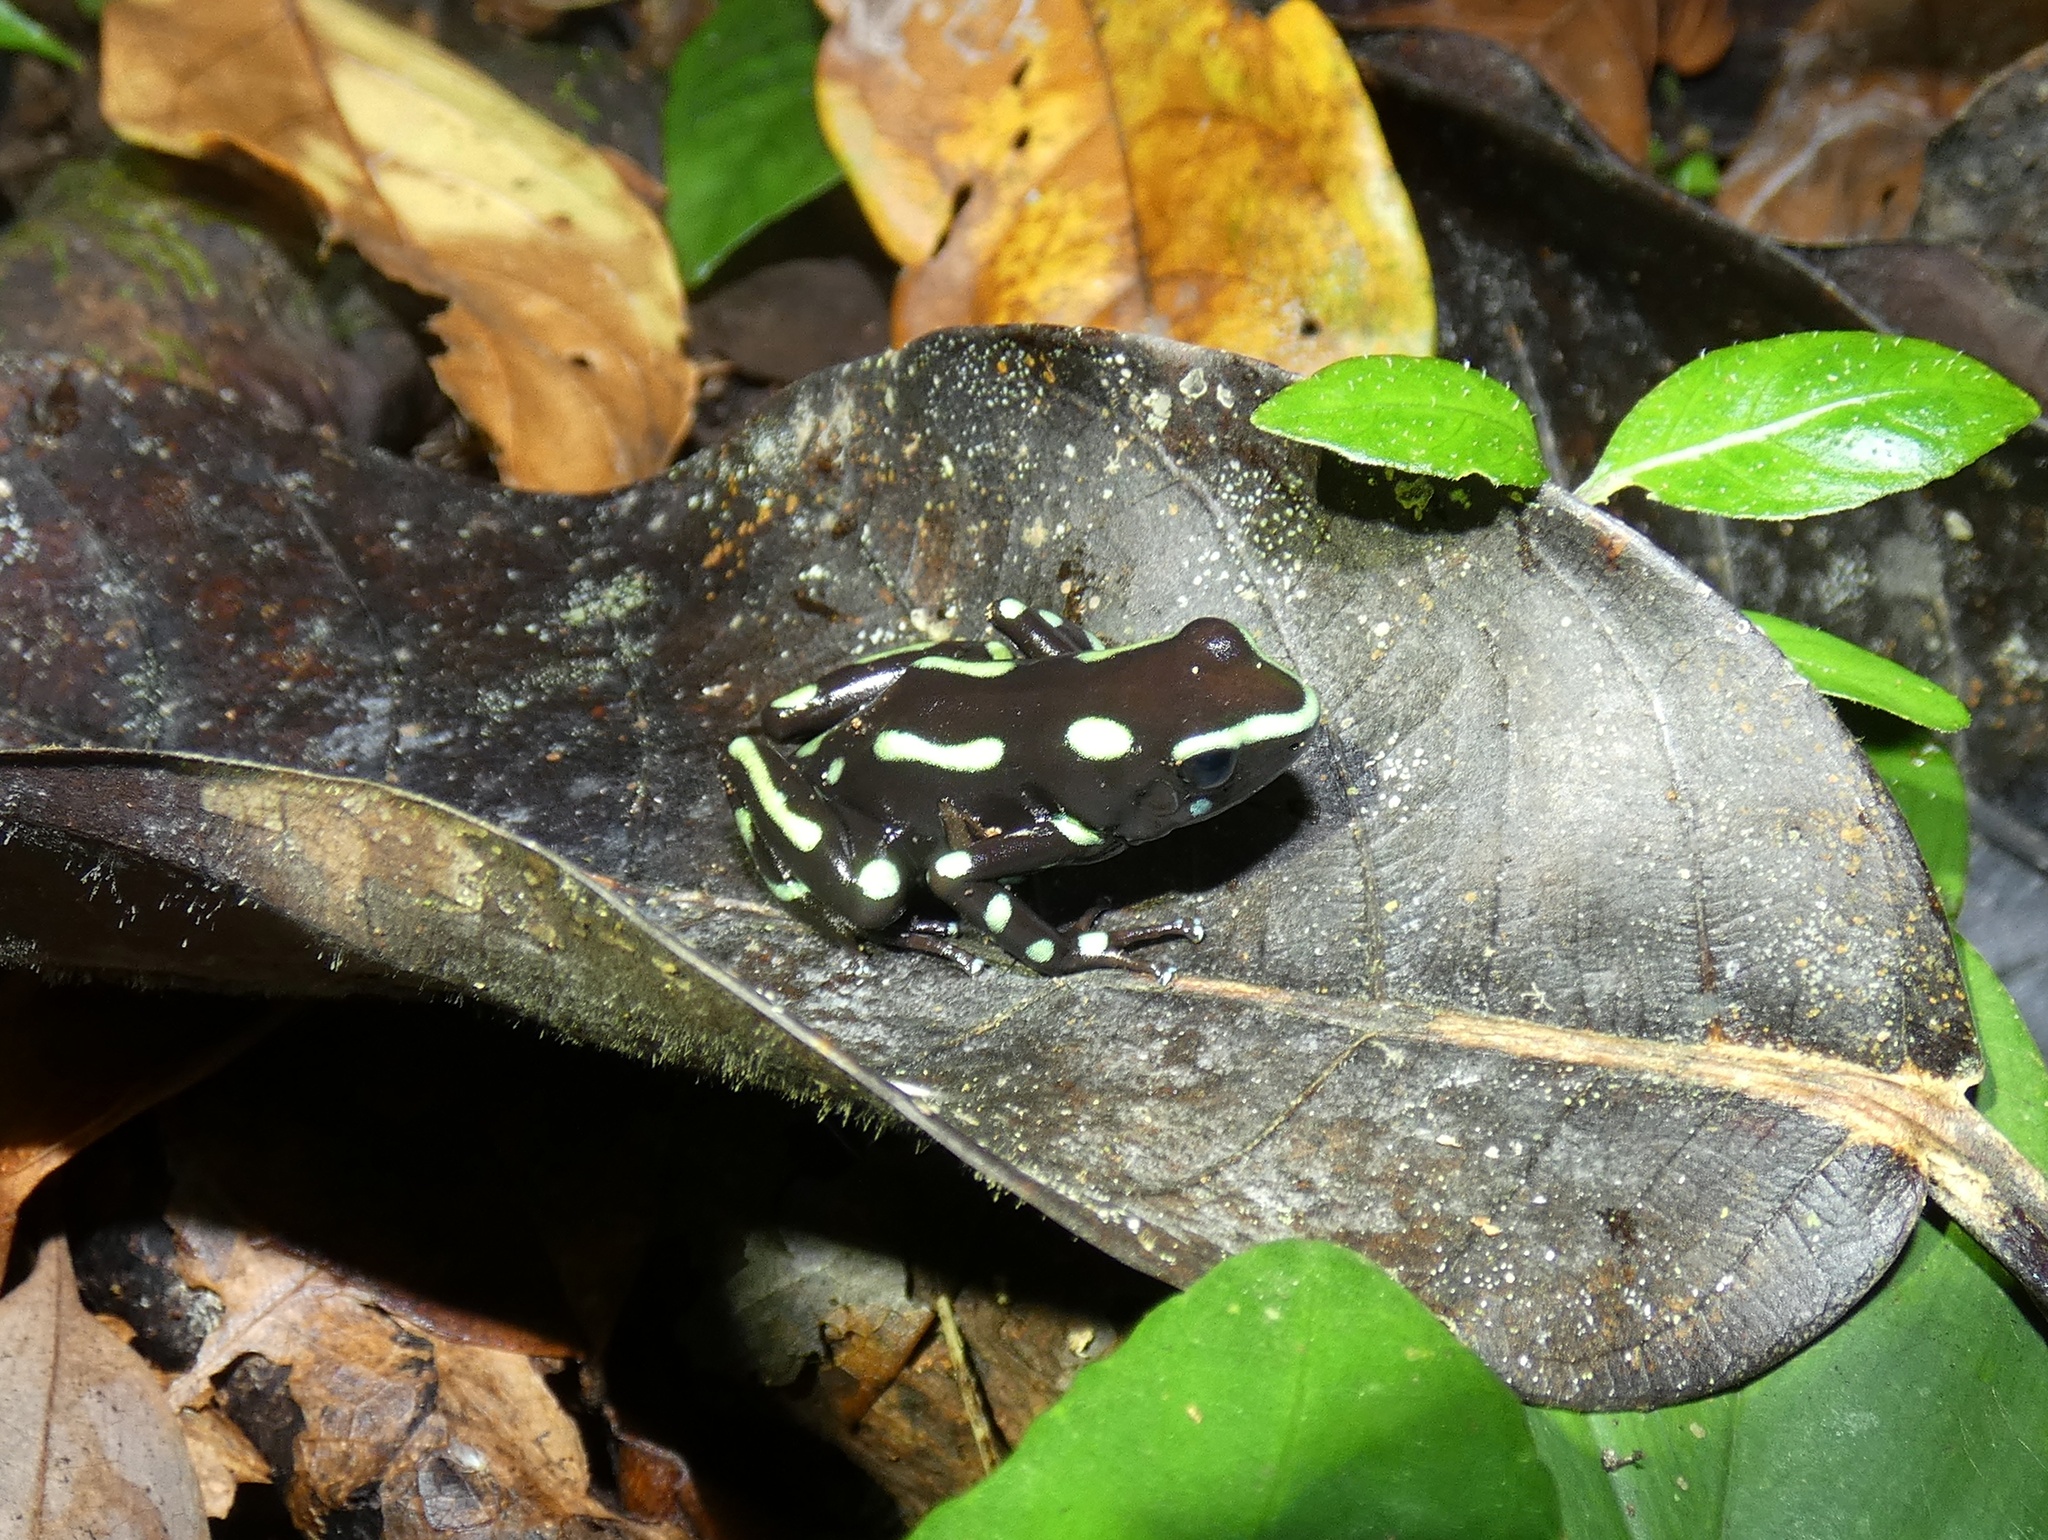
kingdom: Animalia
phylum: Chordata
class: Amphibia
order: Anura
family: Dendrobatidae
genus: Dendrobates
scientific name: Dendrobates auratus
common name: Green and black poison dart frog
